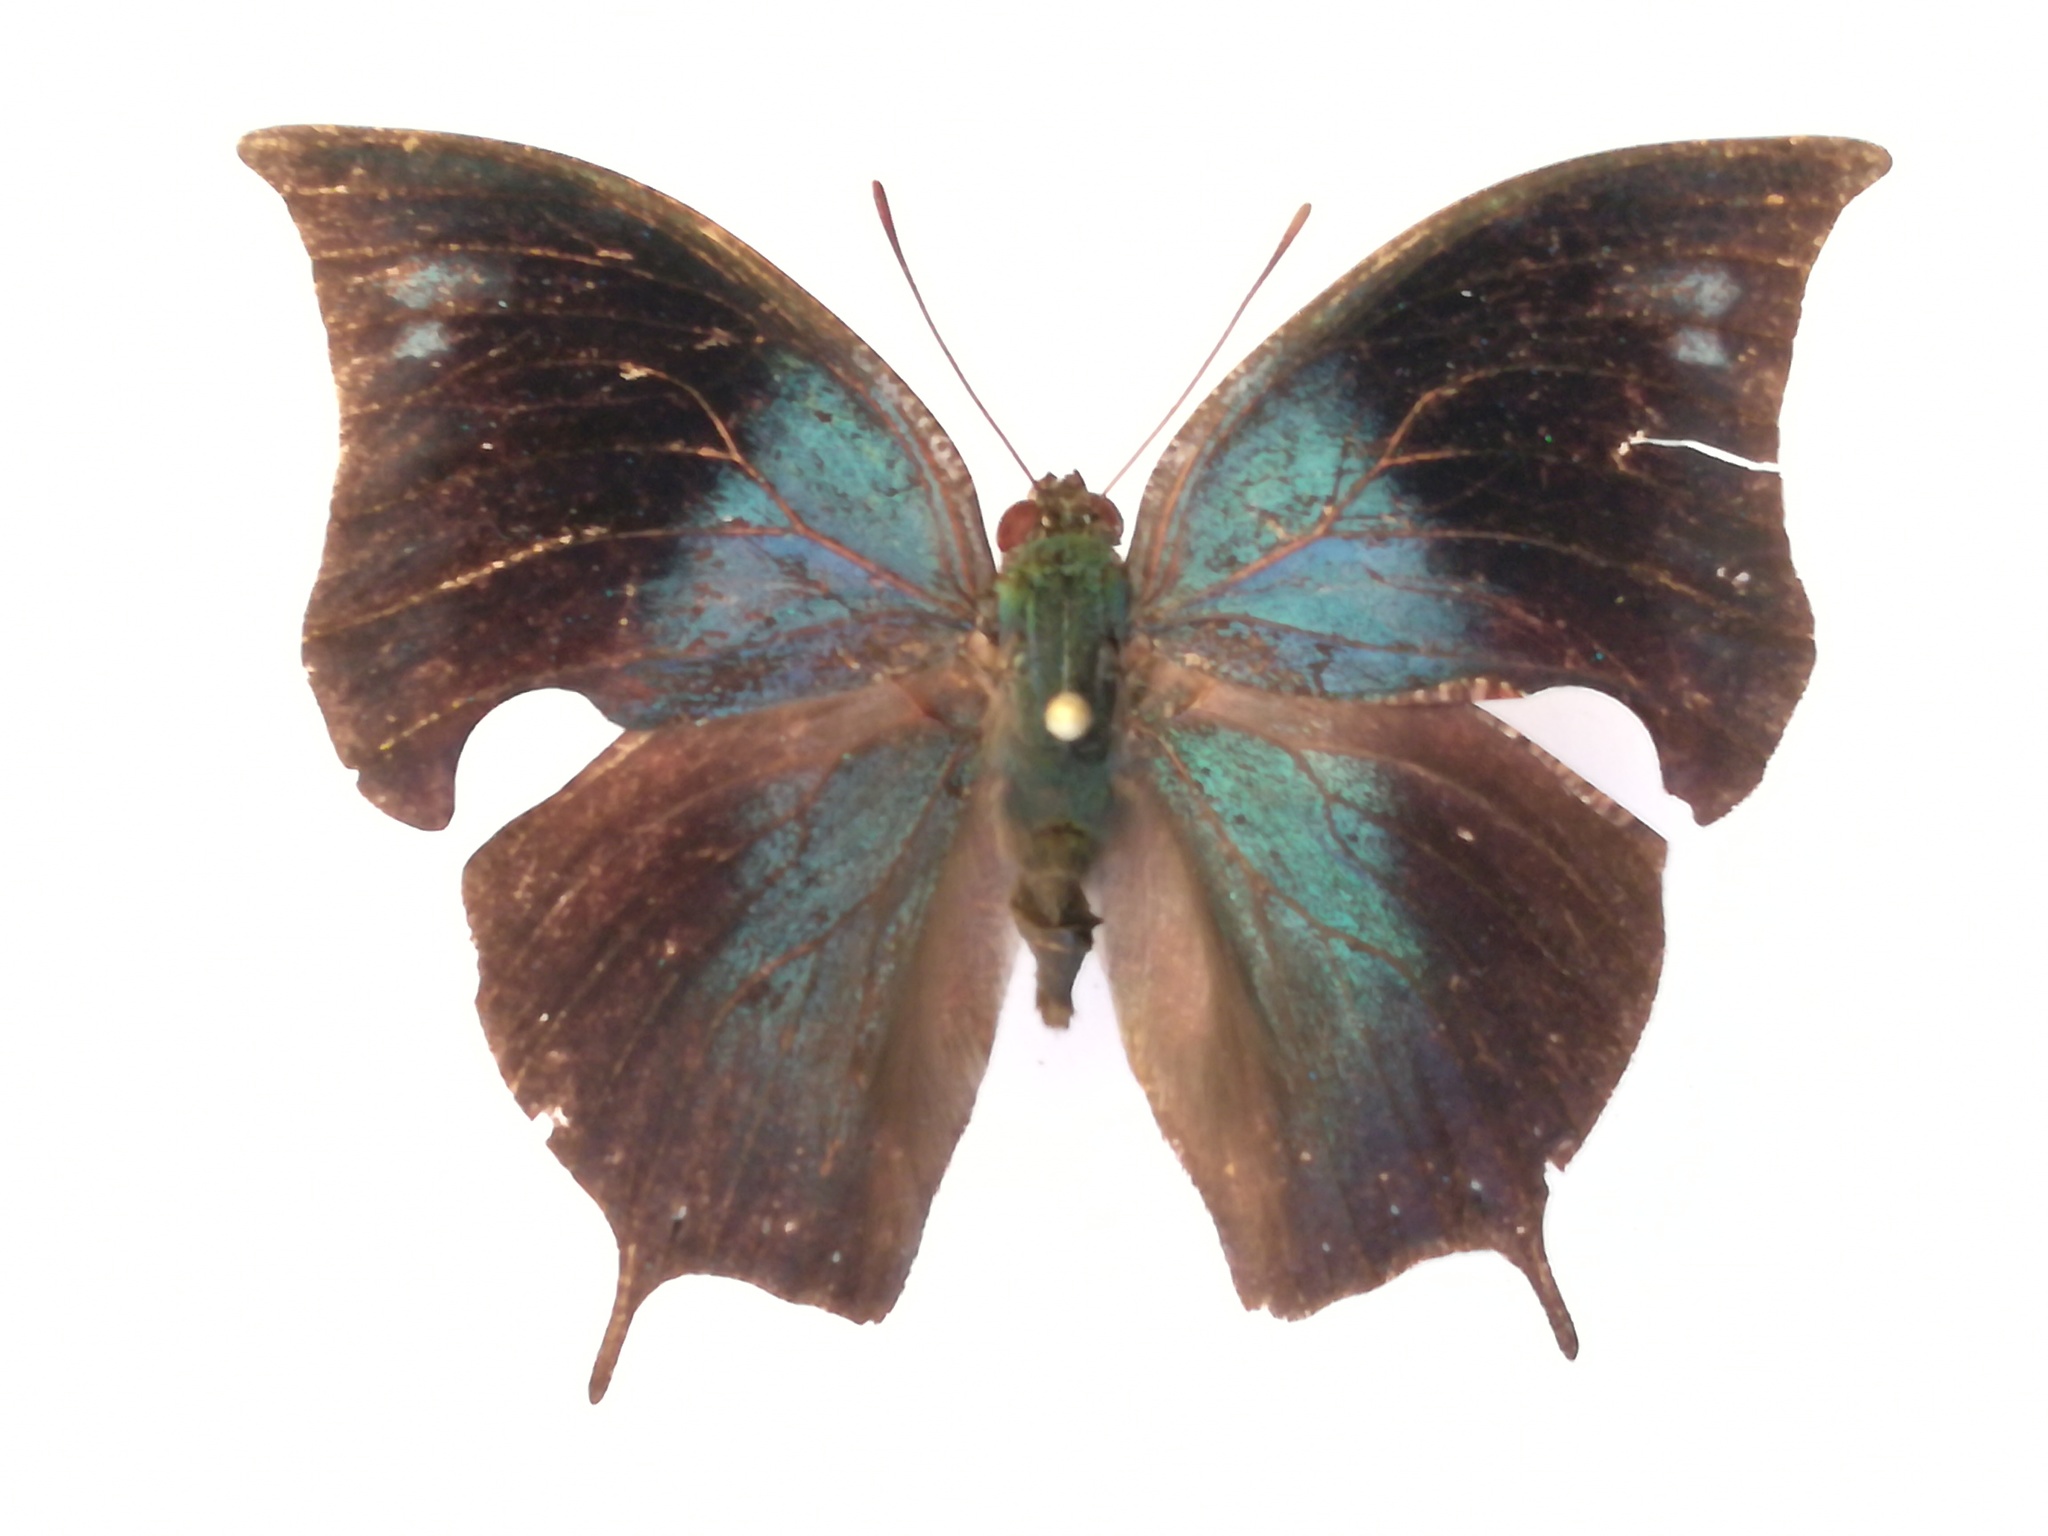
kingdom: Animalia
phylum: Arthropoda
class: Insecta
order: Lepidoptera
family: Nymphalidae
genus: Memphis
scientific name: Memphis moruus
